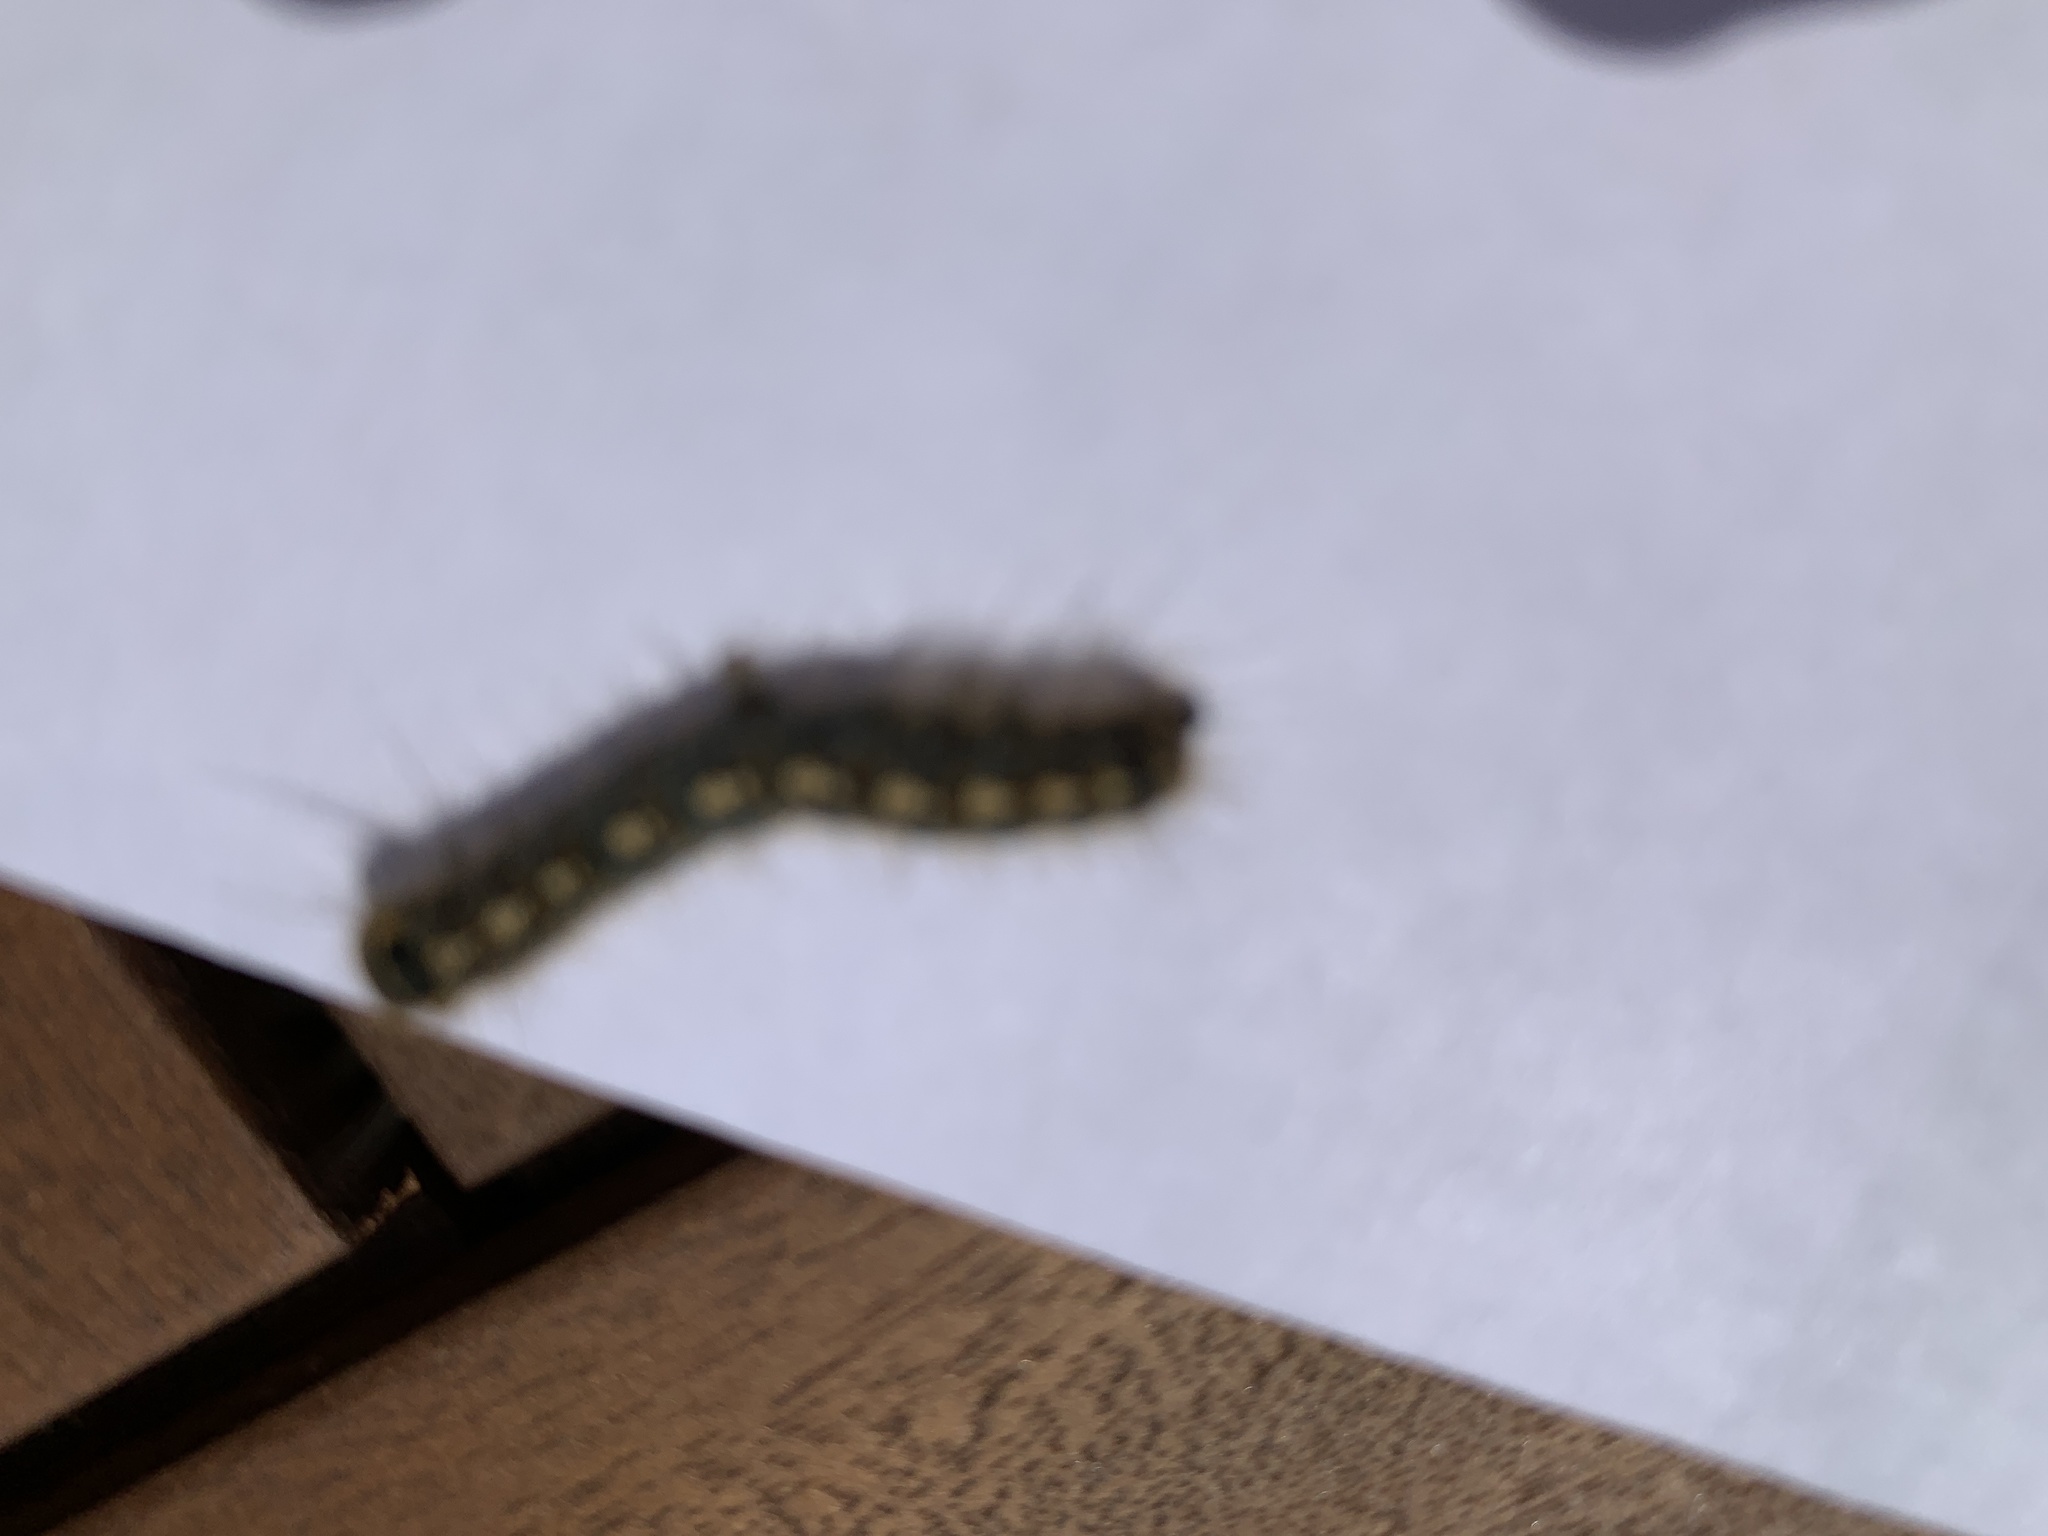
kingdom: Animalia
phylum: Arthropoda
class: Insecta
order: Lepidoptera
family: Lasiocampidae
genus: Malacosoma
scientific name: Malacosoma disstria
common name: Forest tent caterpillar
